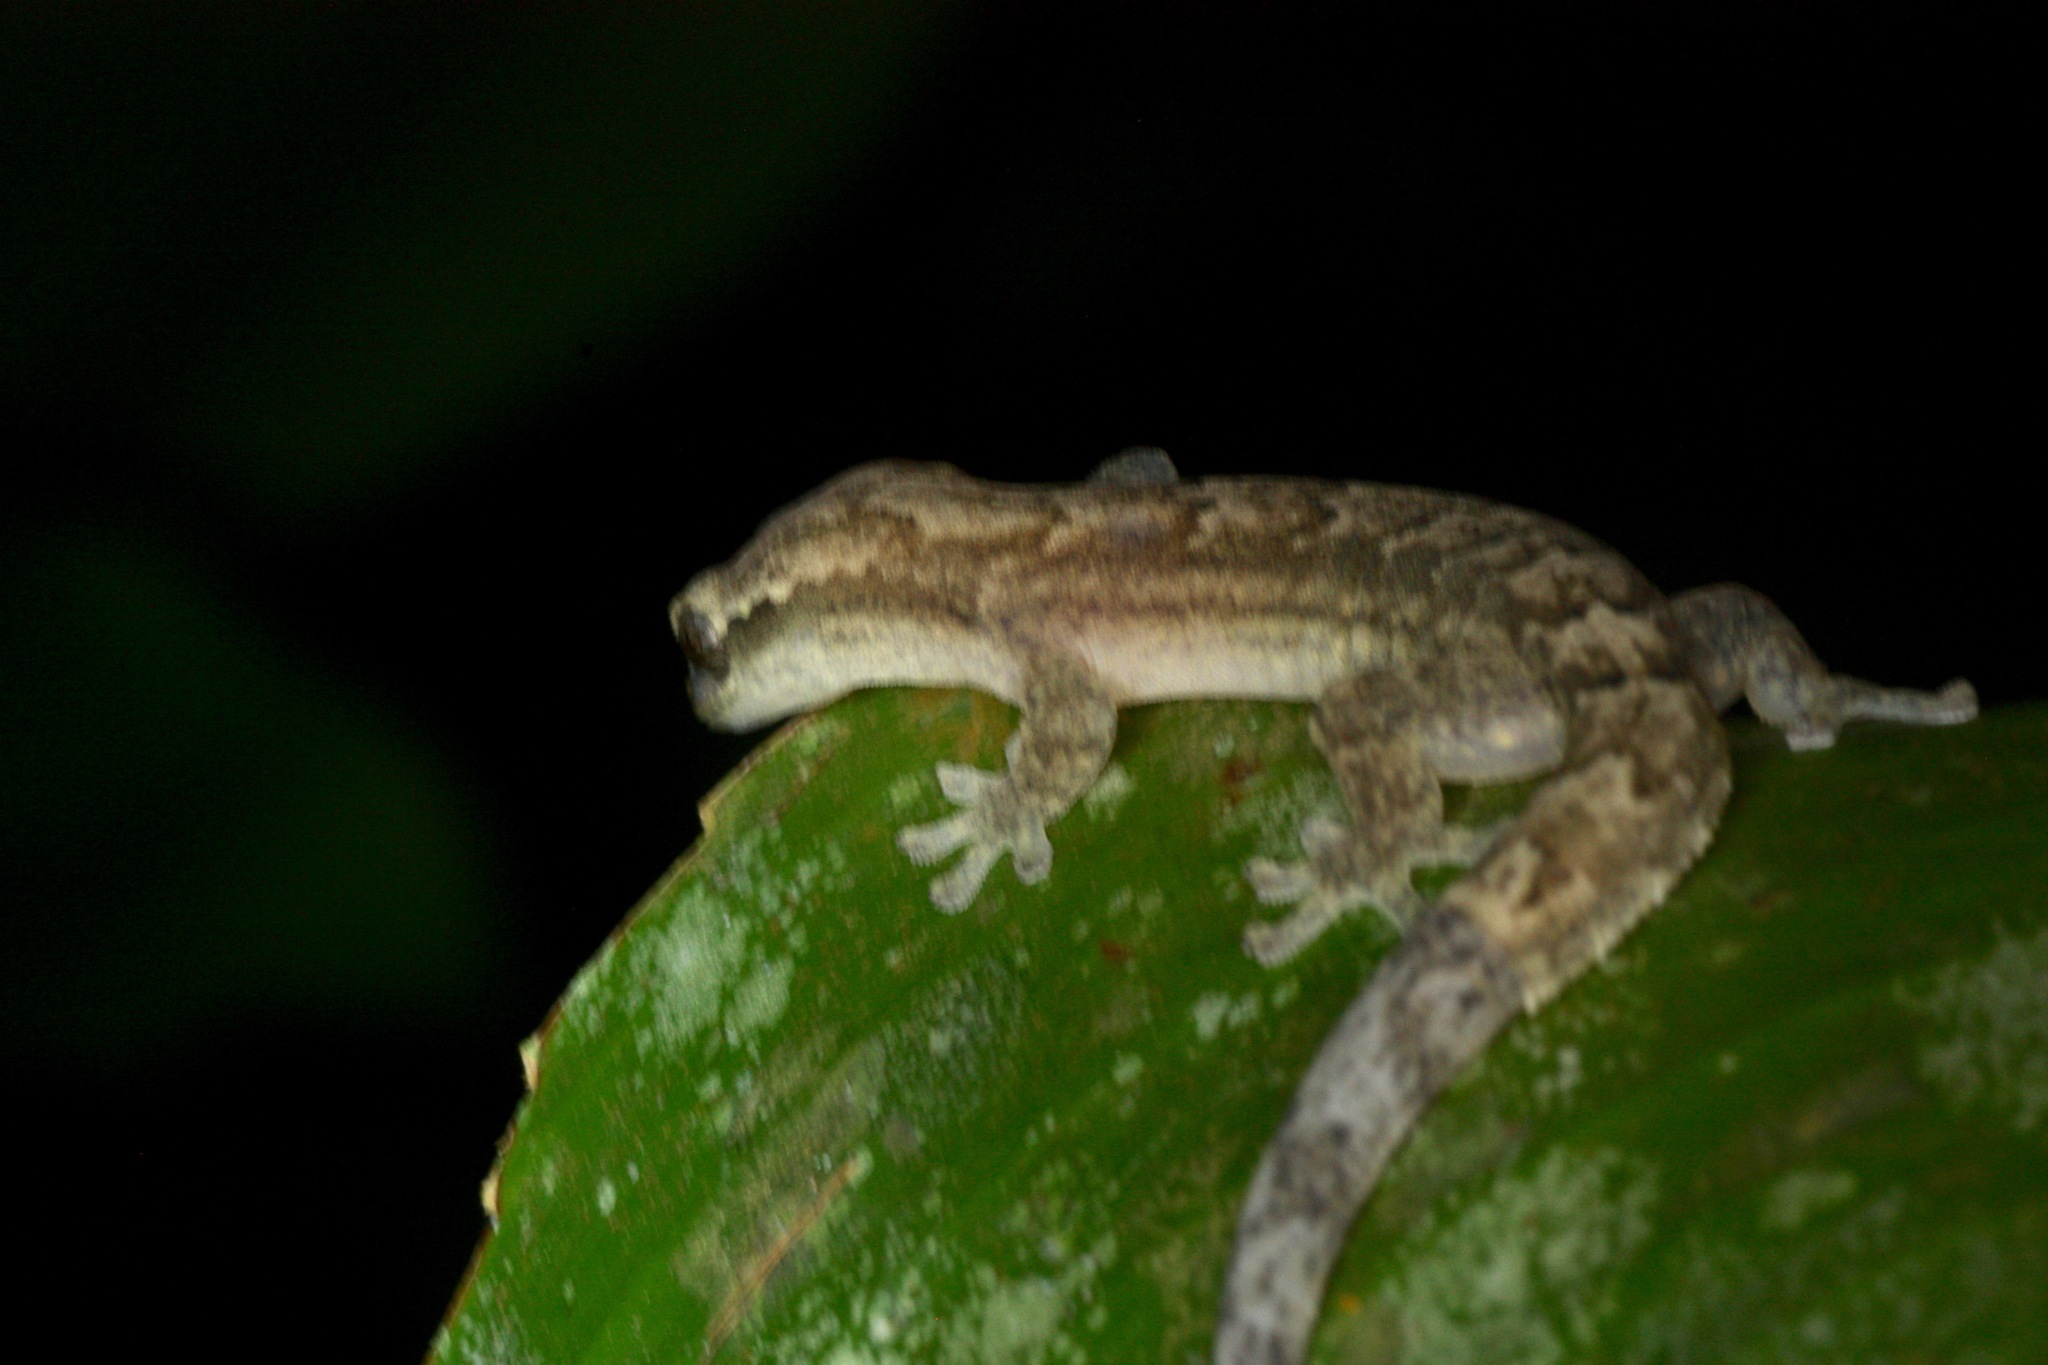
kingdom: Animalia
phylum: Chordata
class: Squamata
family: Gekkonidae
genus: Lepidodactylus
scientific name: Lepidodactylus lugubris
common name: Mourning gecko
